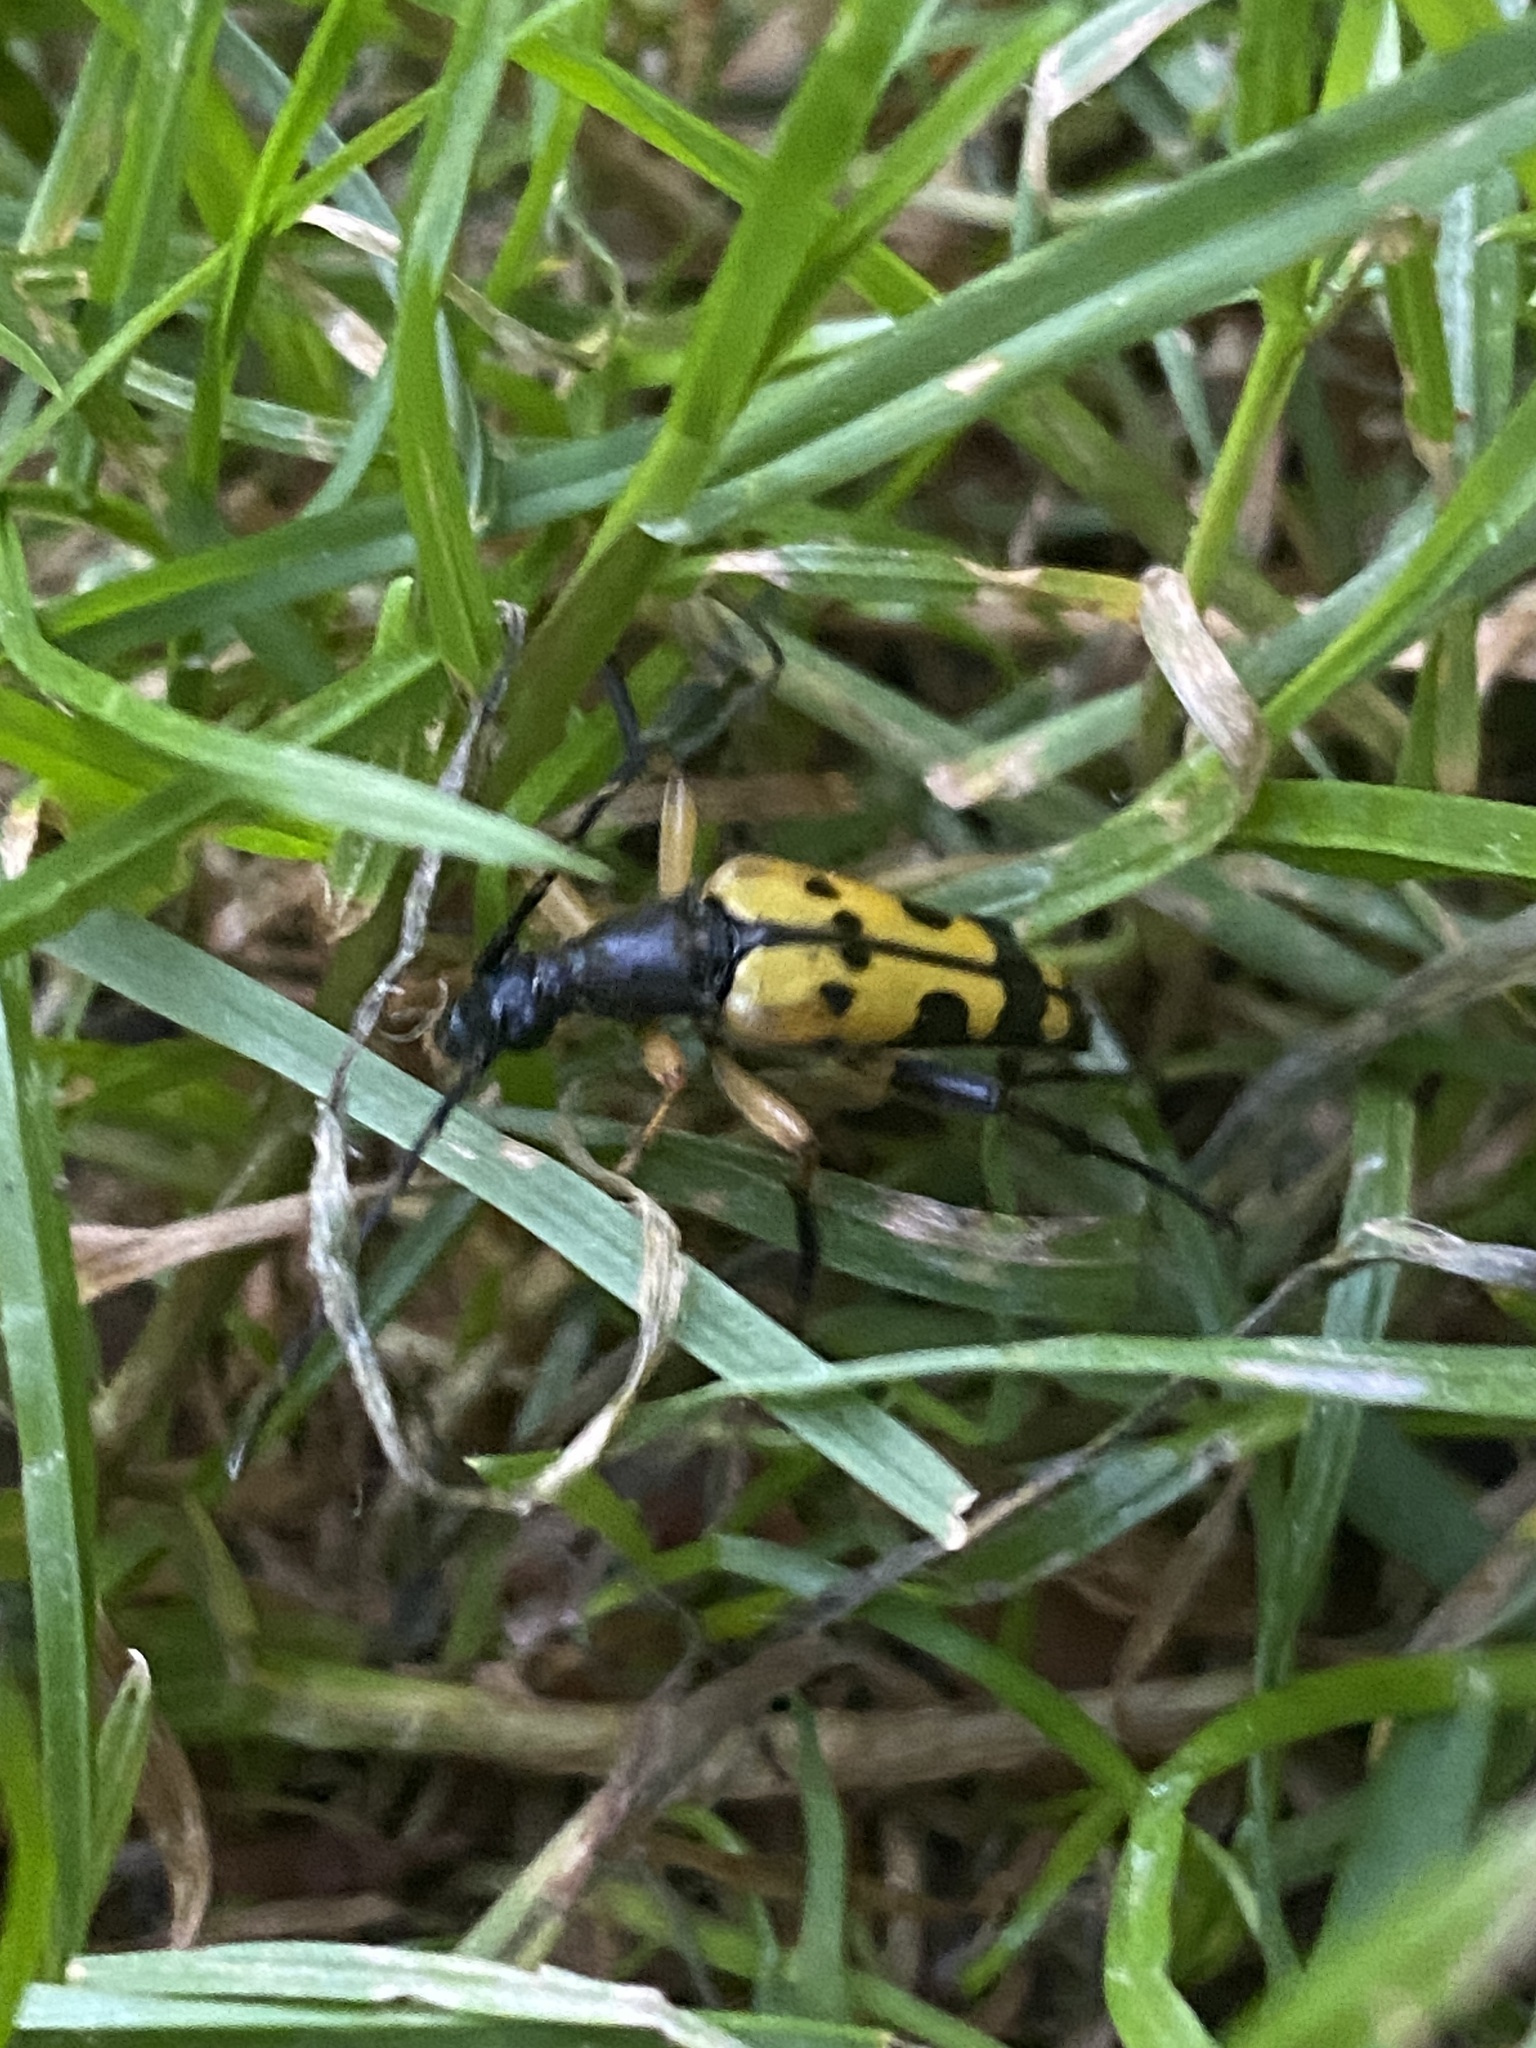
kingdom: Animalia
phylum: Arthropoda
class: Insecta
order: Coleoptera
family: Cerambycidae
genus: Rutpela
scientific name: Rutpela maculata
